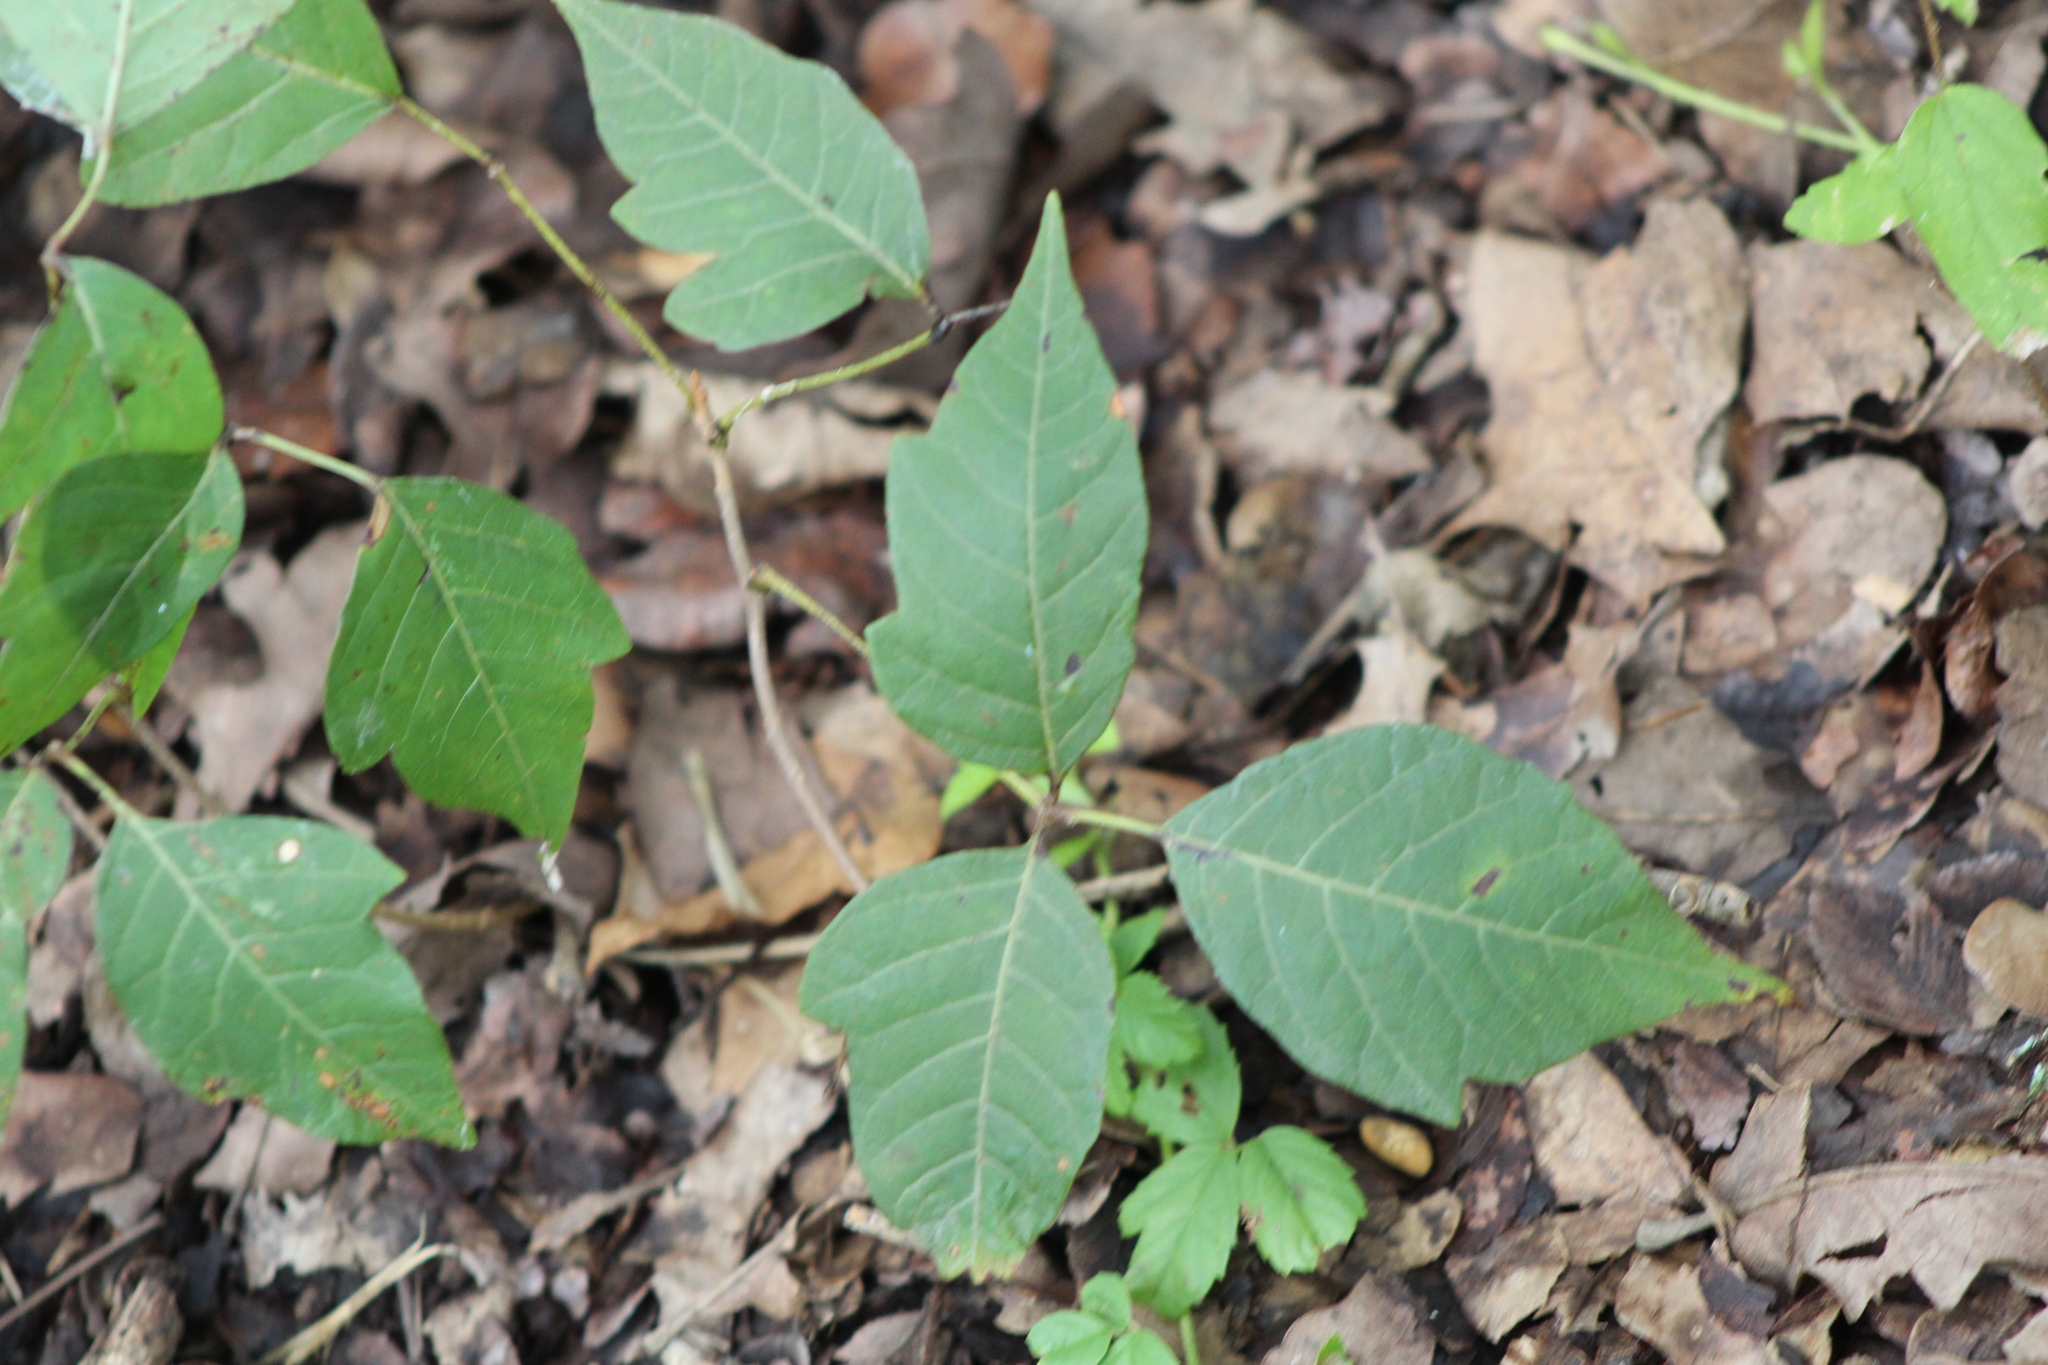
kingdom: Plantae
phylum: Tracheophyta
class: Magnoliopsida
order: Sapindales
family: Anacardiaceae
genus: Toxicodendron
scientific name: Toxicodendron radicans
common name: Poison ivy
